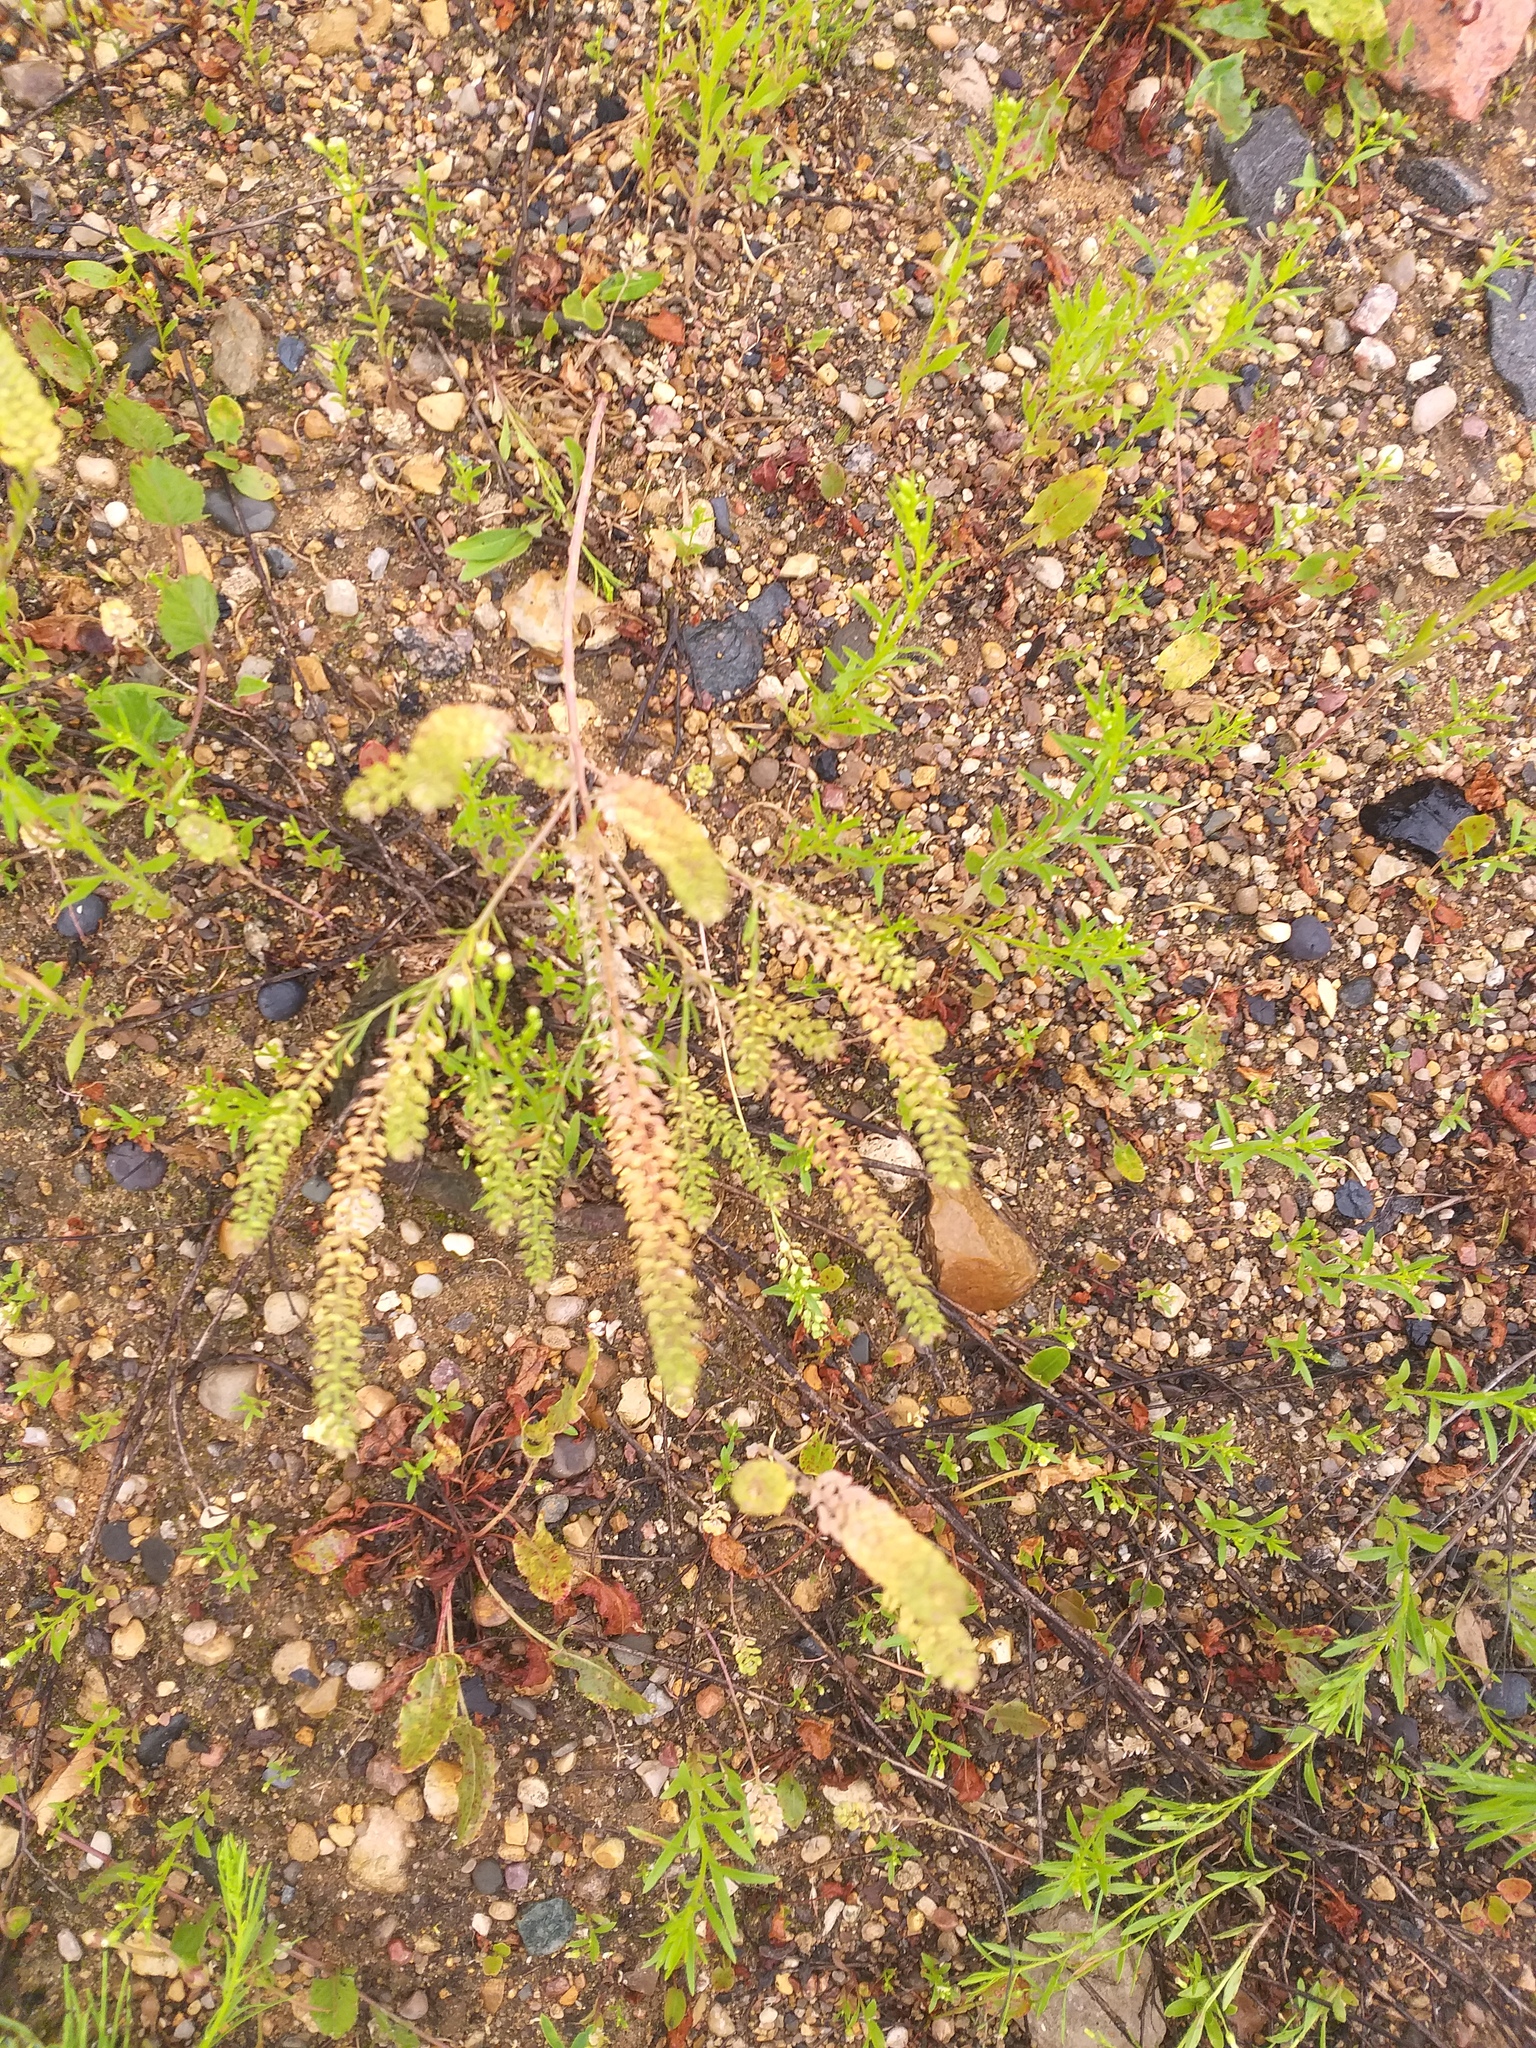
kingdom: Plantae
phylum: Tracheophyta
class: Magnoliopsida
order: Brassicales
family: Brassicaceae
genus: Lepidium
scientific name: Lepidium densiflorum
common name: Miner's pepperwort
